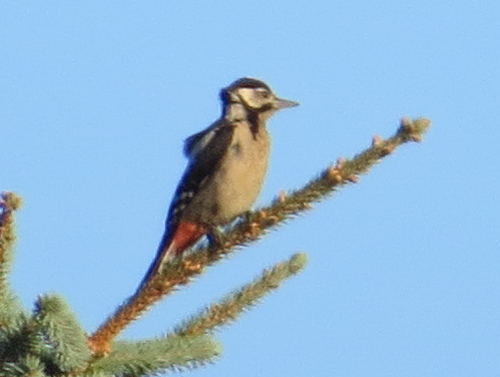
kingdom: Animalia
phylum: Chordata
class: Aves
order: Piciformes
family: Picidae
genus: Dendrocopos
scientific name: Dendrocopos major
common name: Great spotted woodpecker
